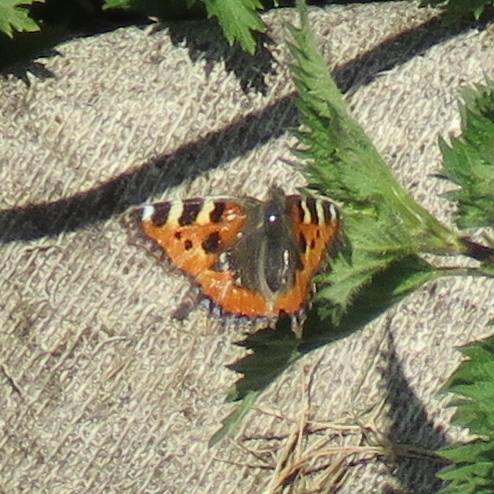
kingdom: Animalia
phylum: Arthropoda
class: Insecta
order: Lepidoptera
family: Nymphalidae
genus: Aglais
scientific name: Aglais urticae
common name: Small tortoiseshell
